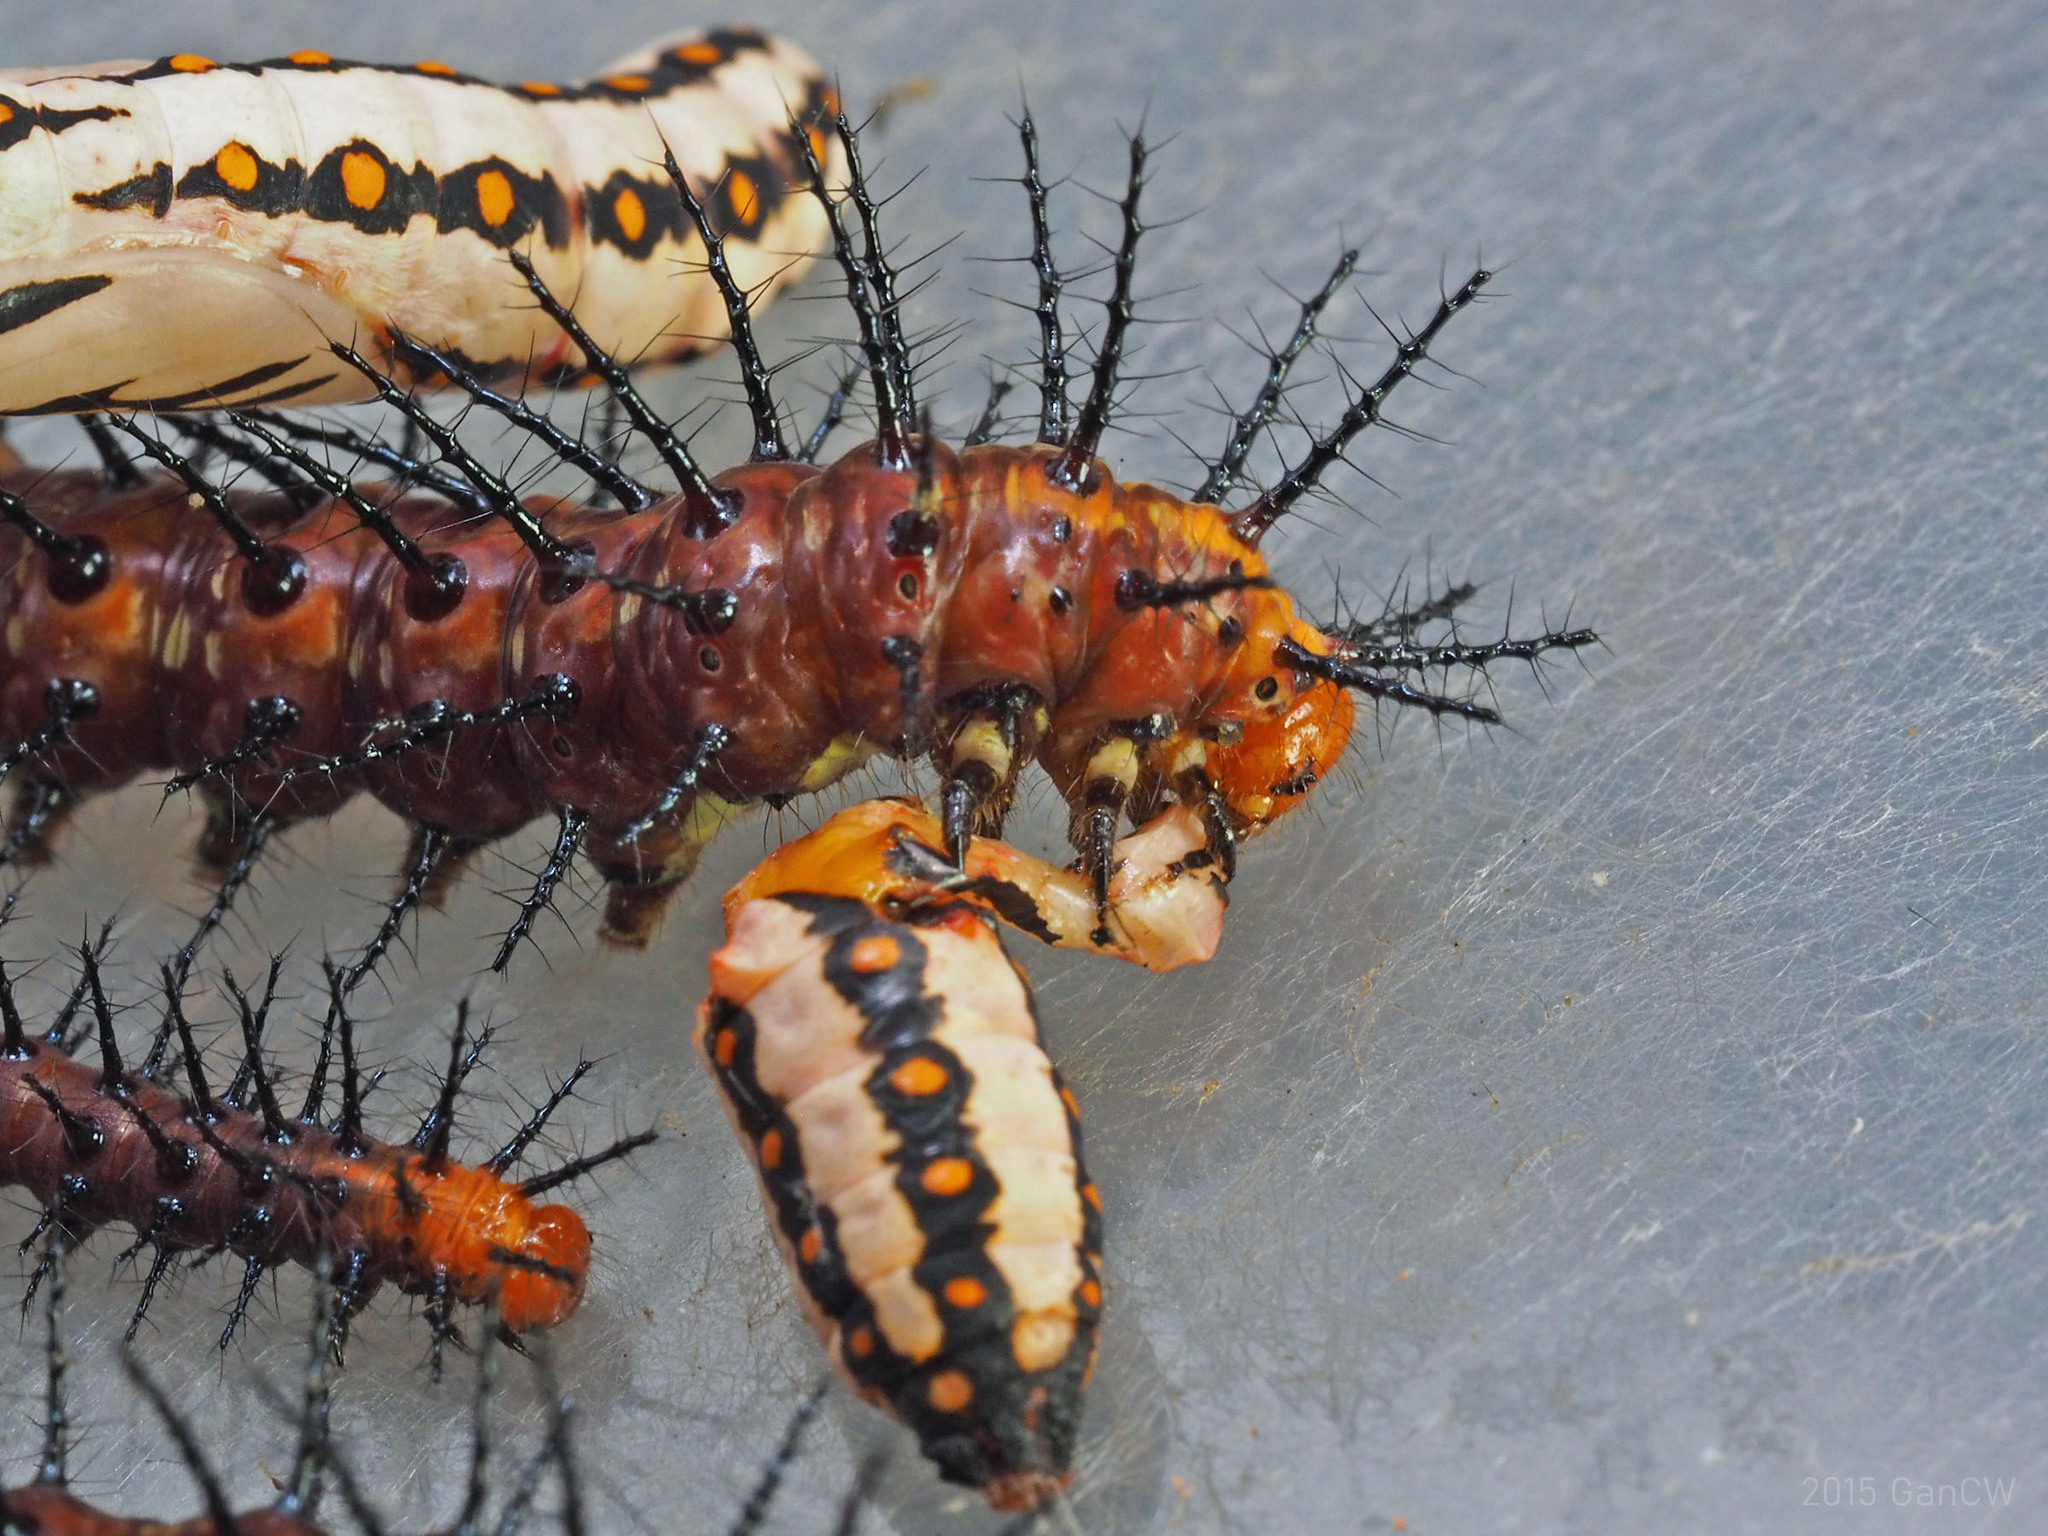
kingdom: Animalia
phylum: Arthropoda
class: Insecta
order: Lepidoptera
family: Nymphalidae
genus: Acraea
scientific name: Acraea terpsicore
